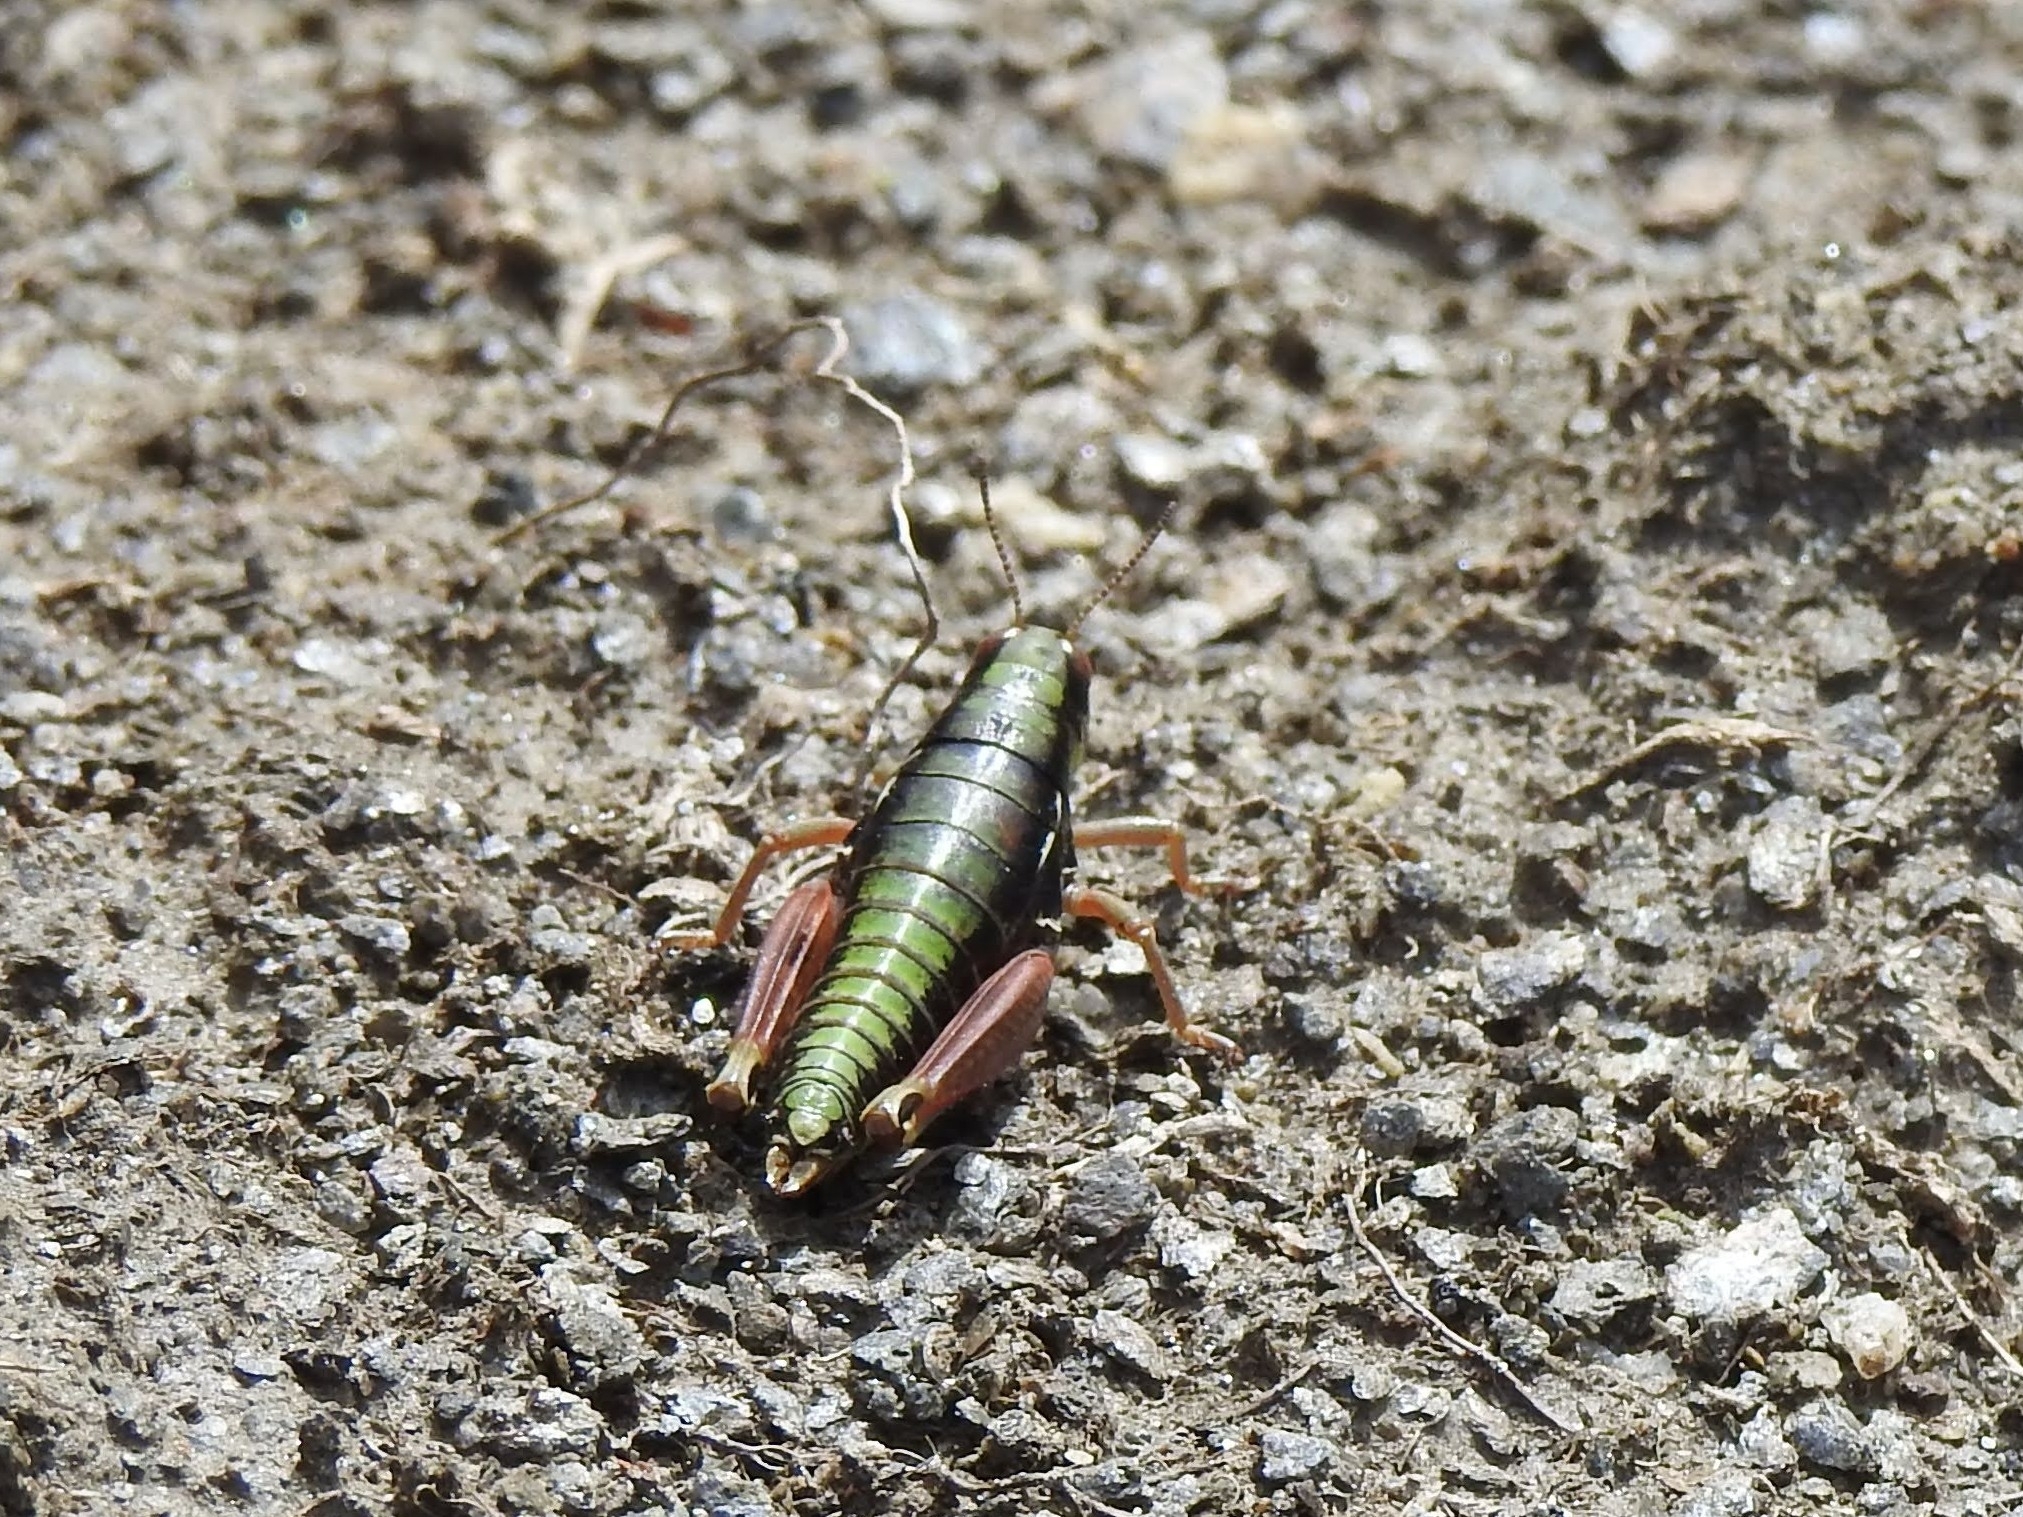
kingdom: Animalia
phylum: Arthropoda
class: Insecta
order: Orthoptera
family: Acrididae
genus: Epipodisma
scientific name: Epipodisma pedemontana
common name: Piedmont mountain grasshopper
